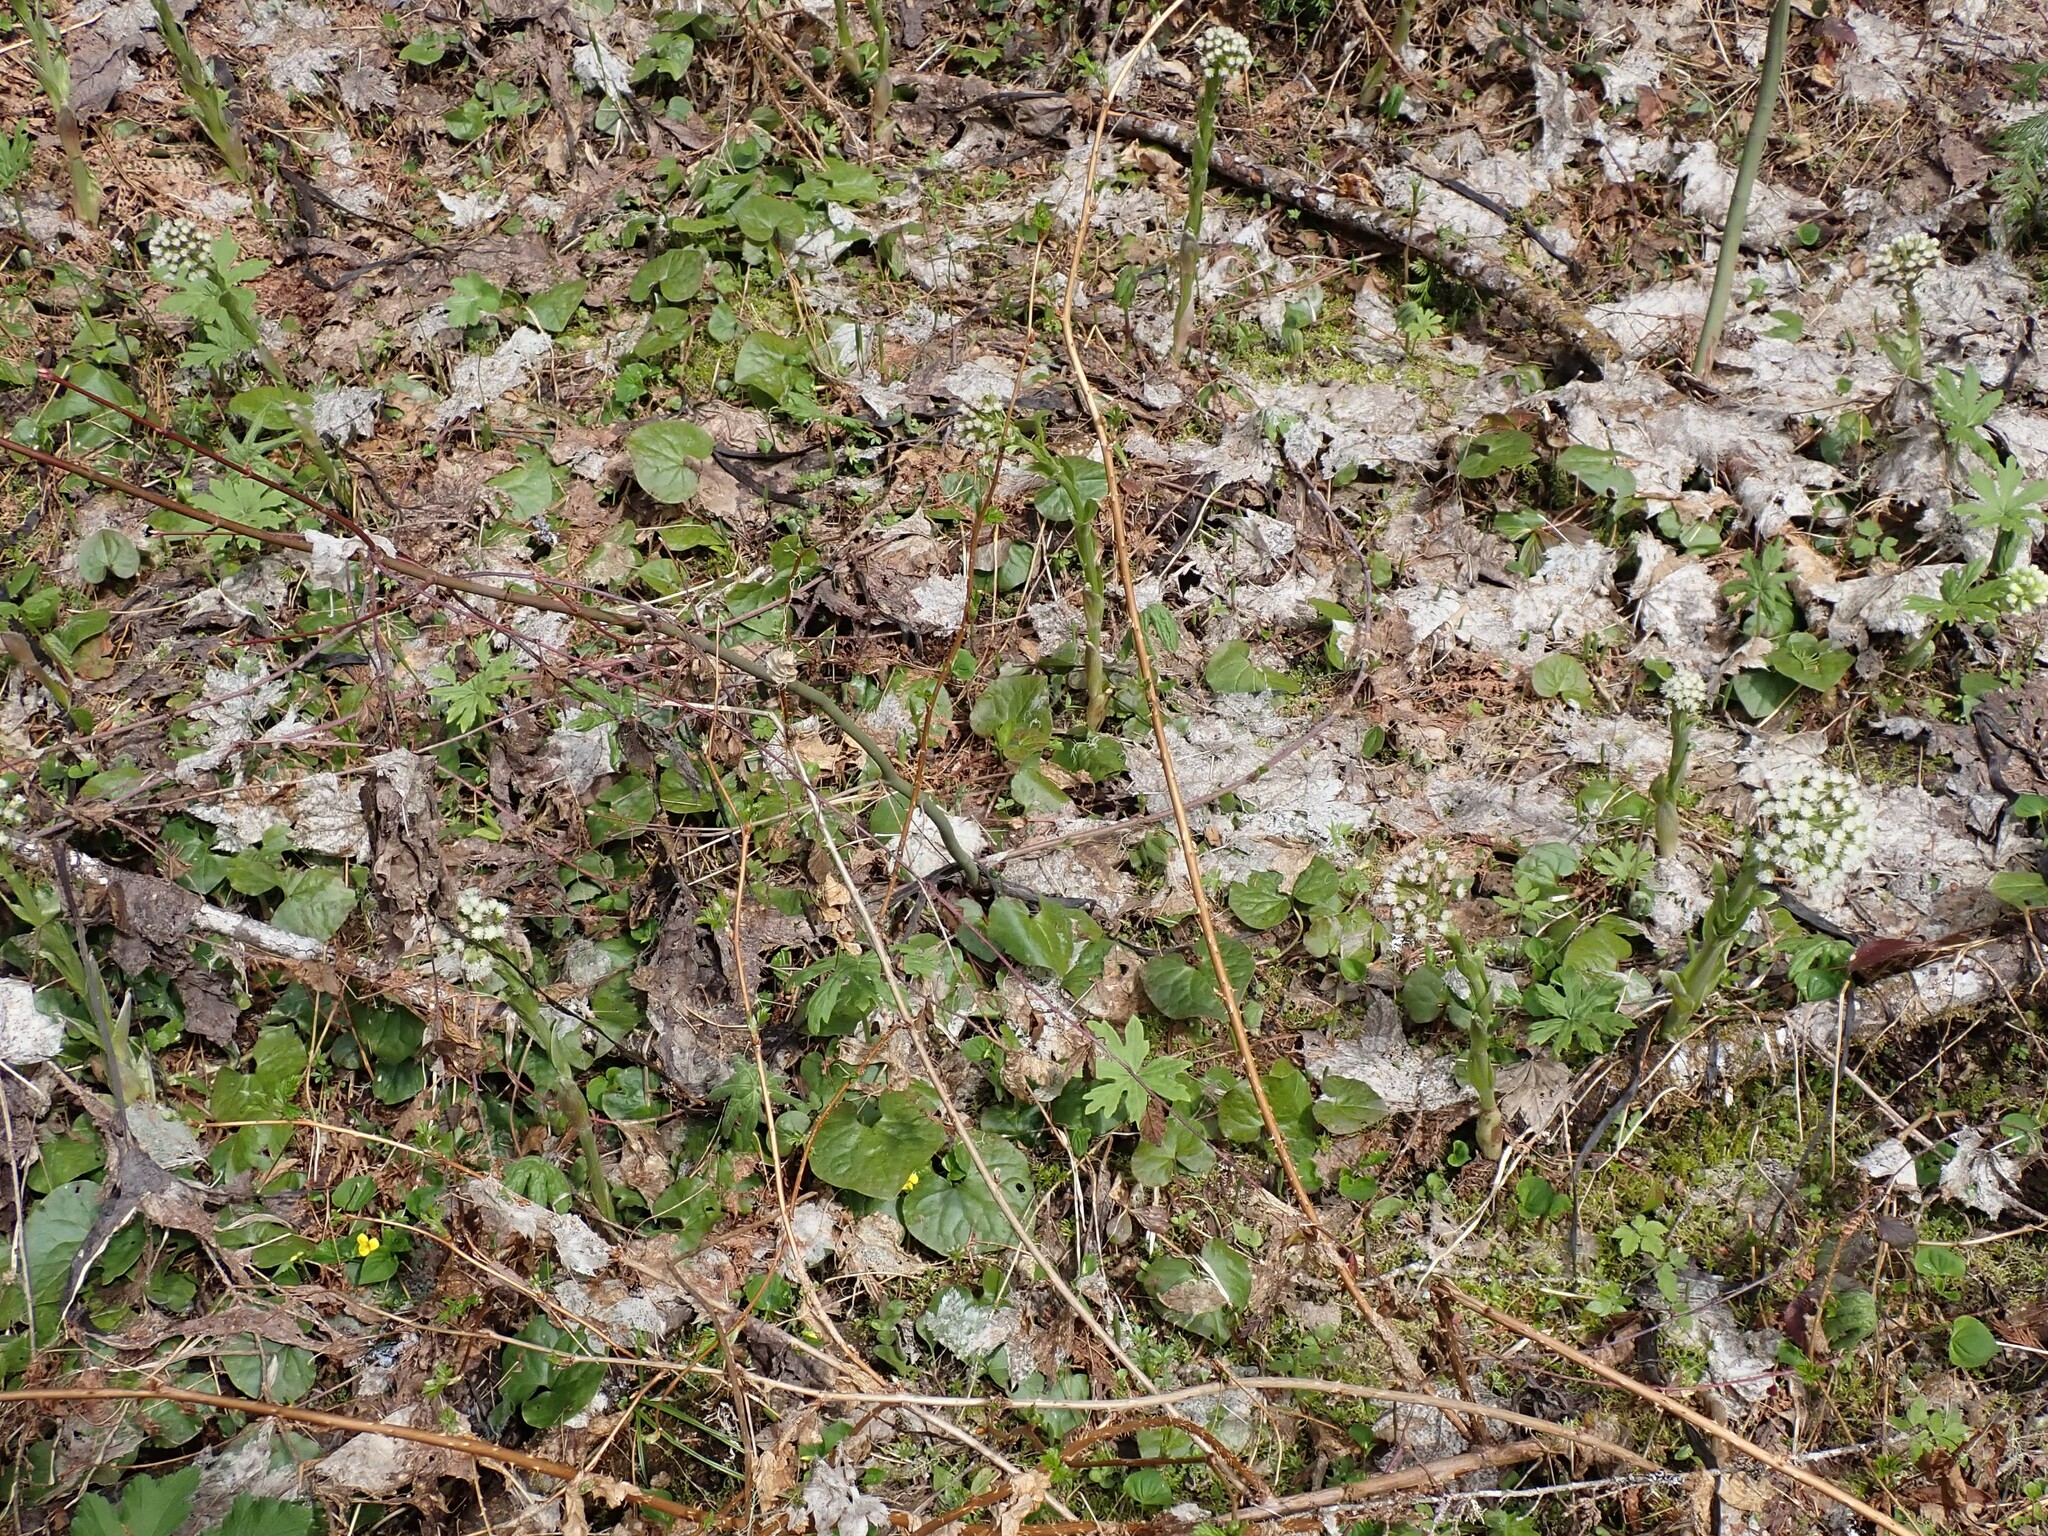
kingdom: Plantae
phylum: Tracheophyta
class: Magnoliopsida
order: Piperales
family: Aristolochiaceae
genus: Asarum
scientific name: Asarum caudatum
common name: Wild ginger
